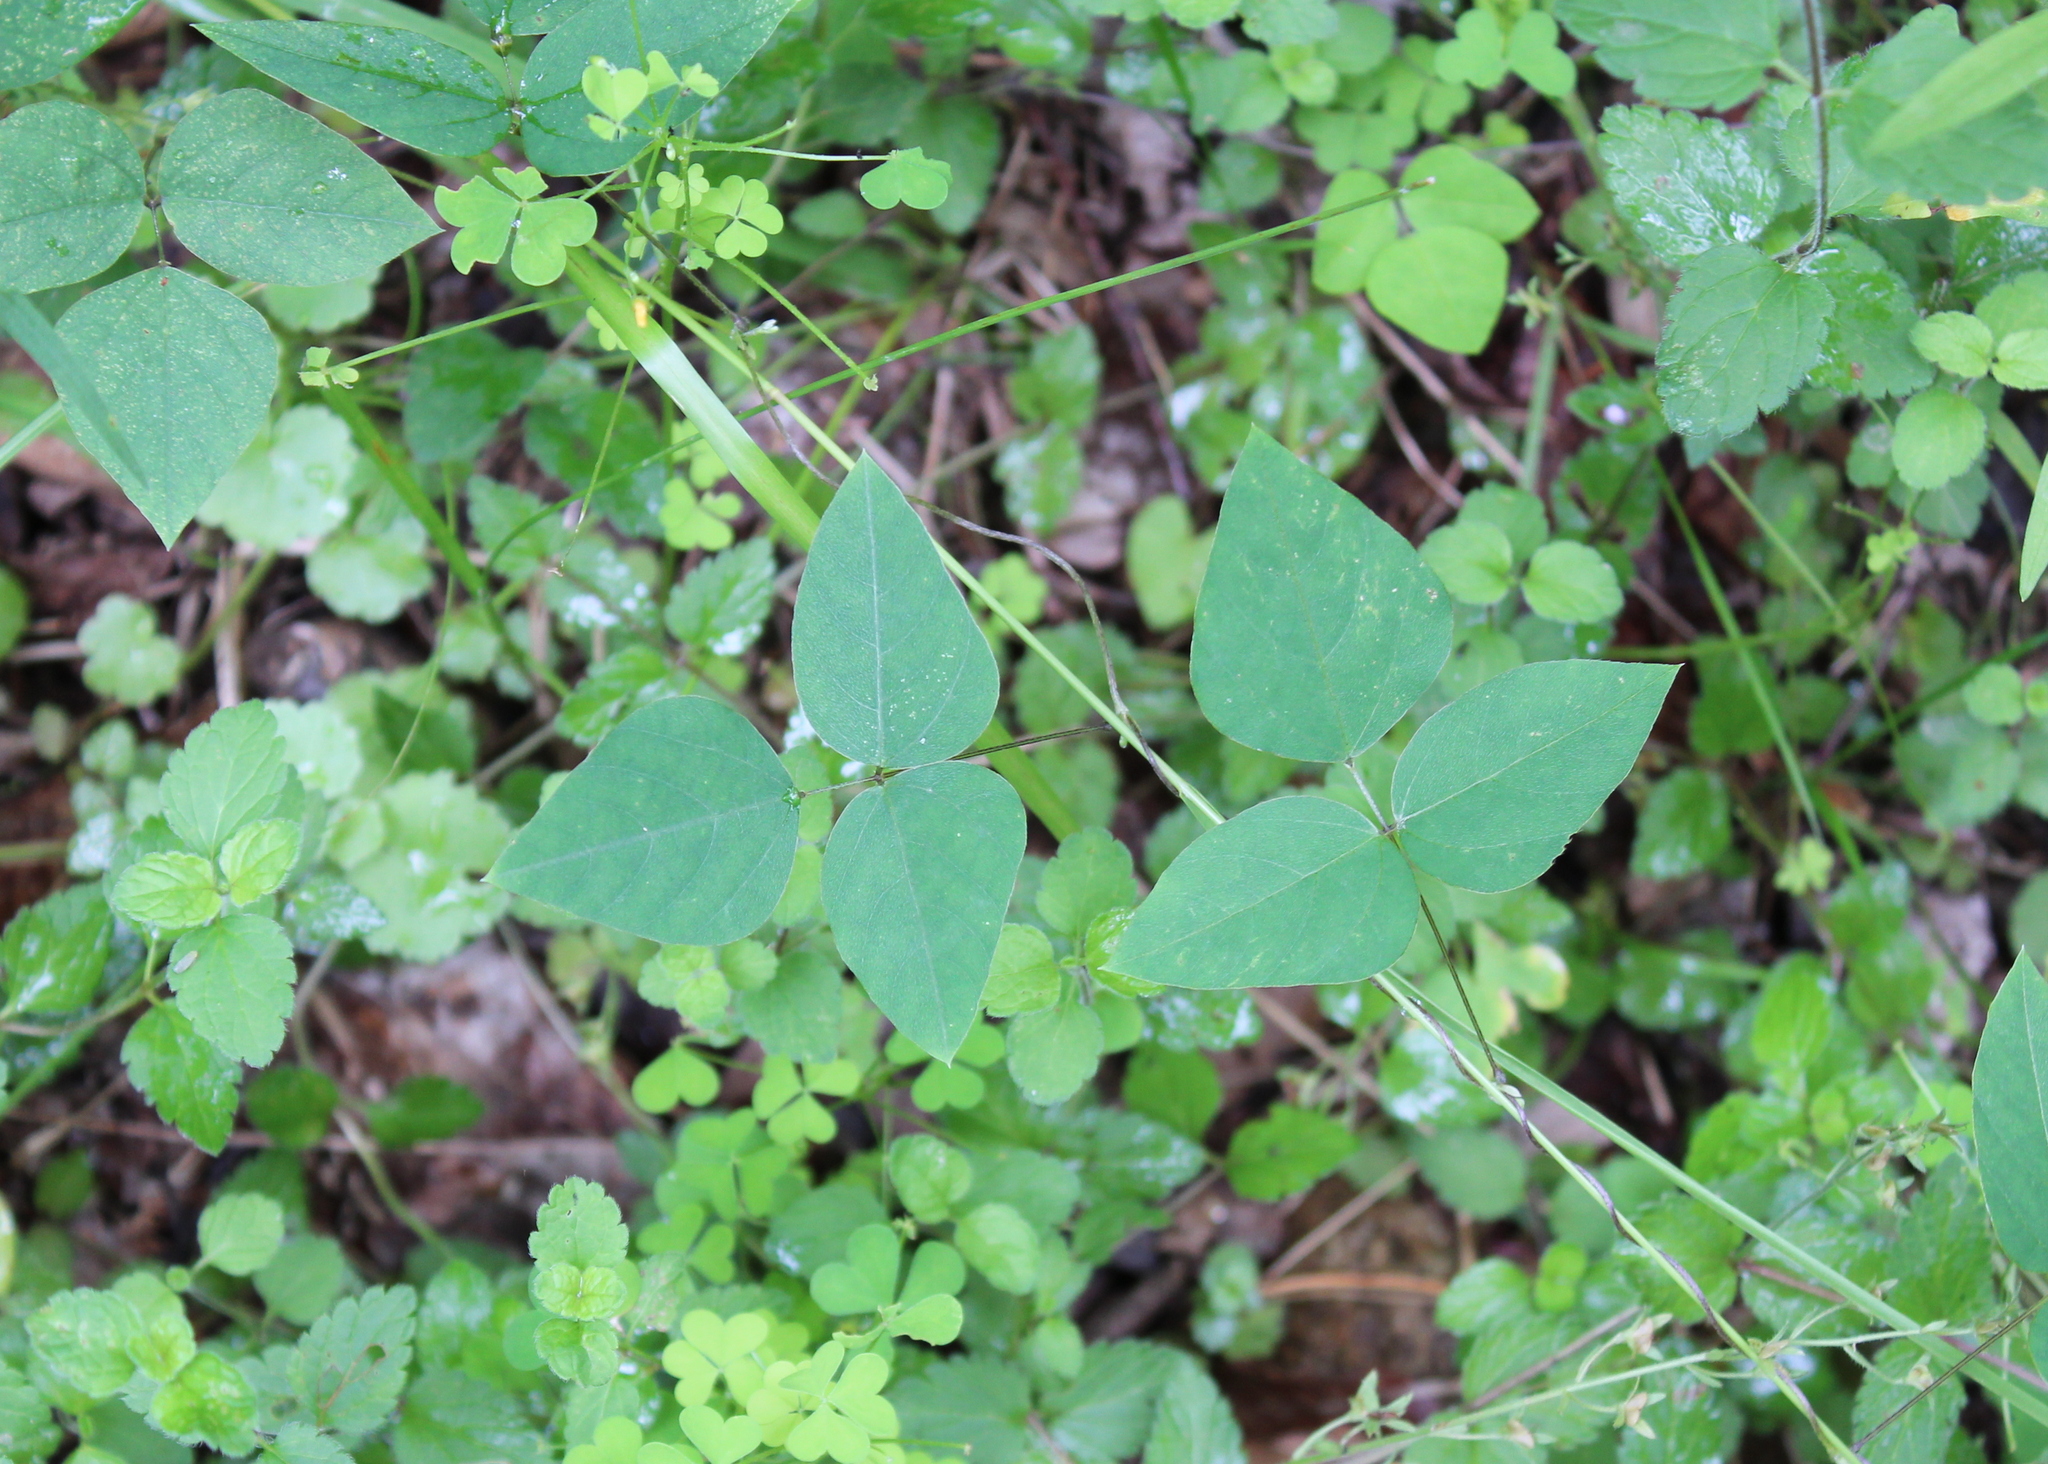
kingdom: Plantae
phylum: Tracheophyta
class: Magnoliopsida
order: Fabales
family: Fabaceae
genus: Amphicarpaea
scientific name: Amphicarpaea bracteata
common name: American hog peanut
